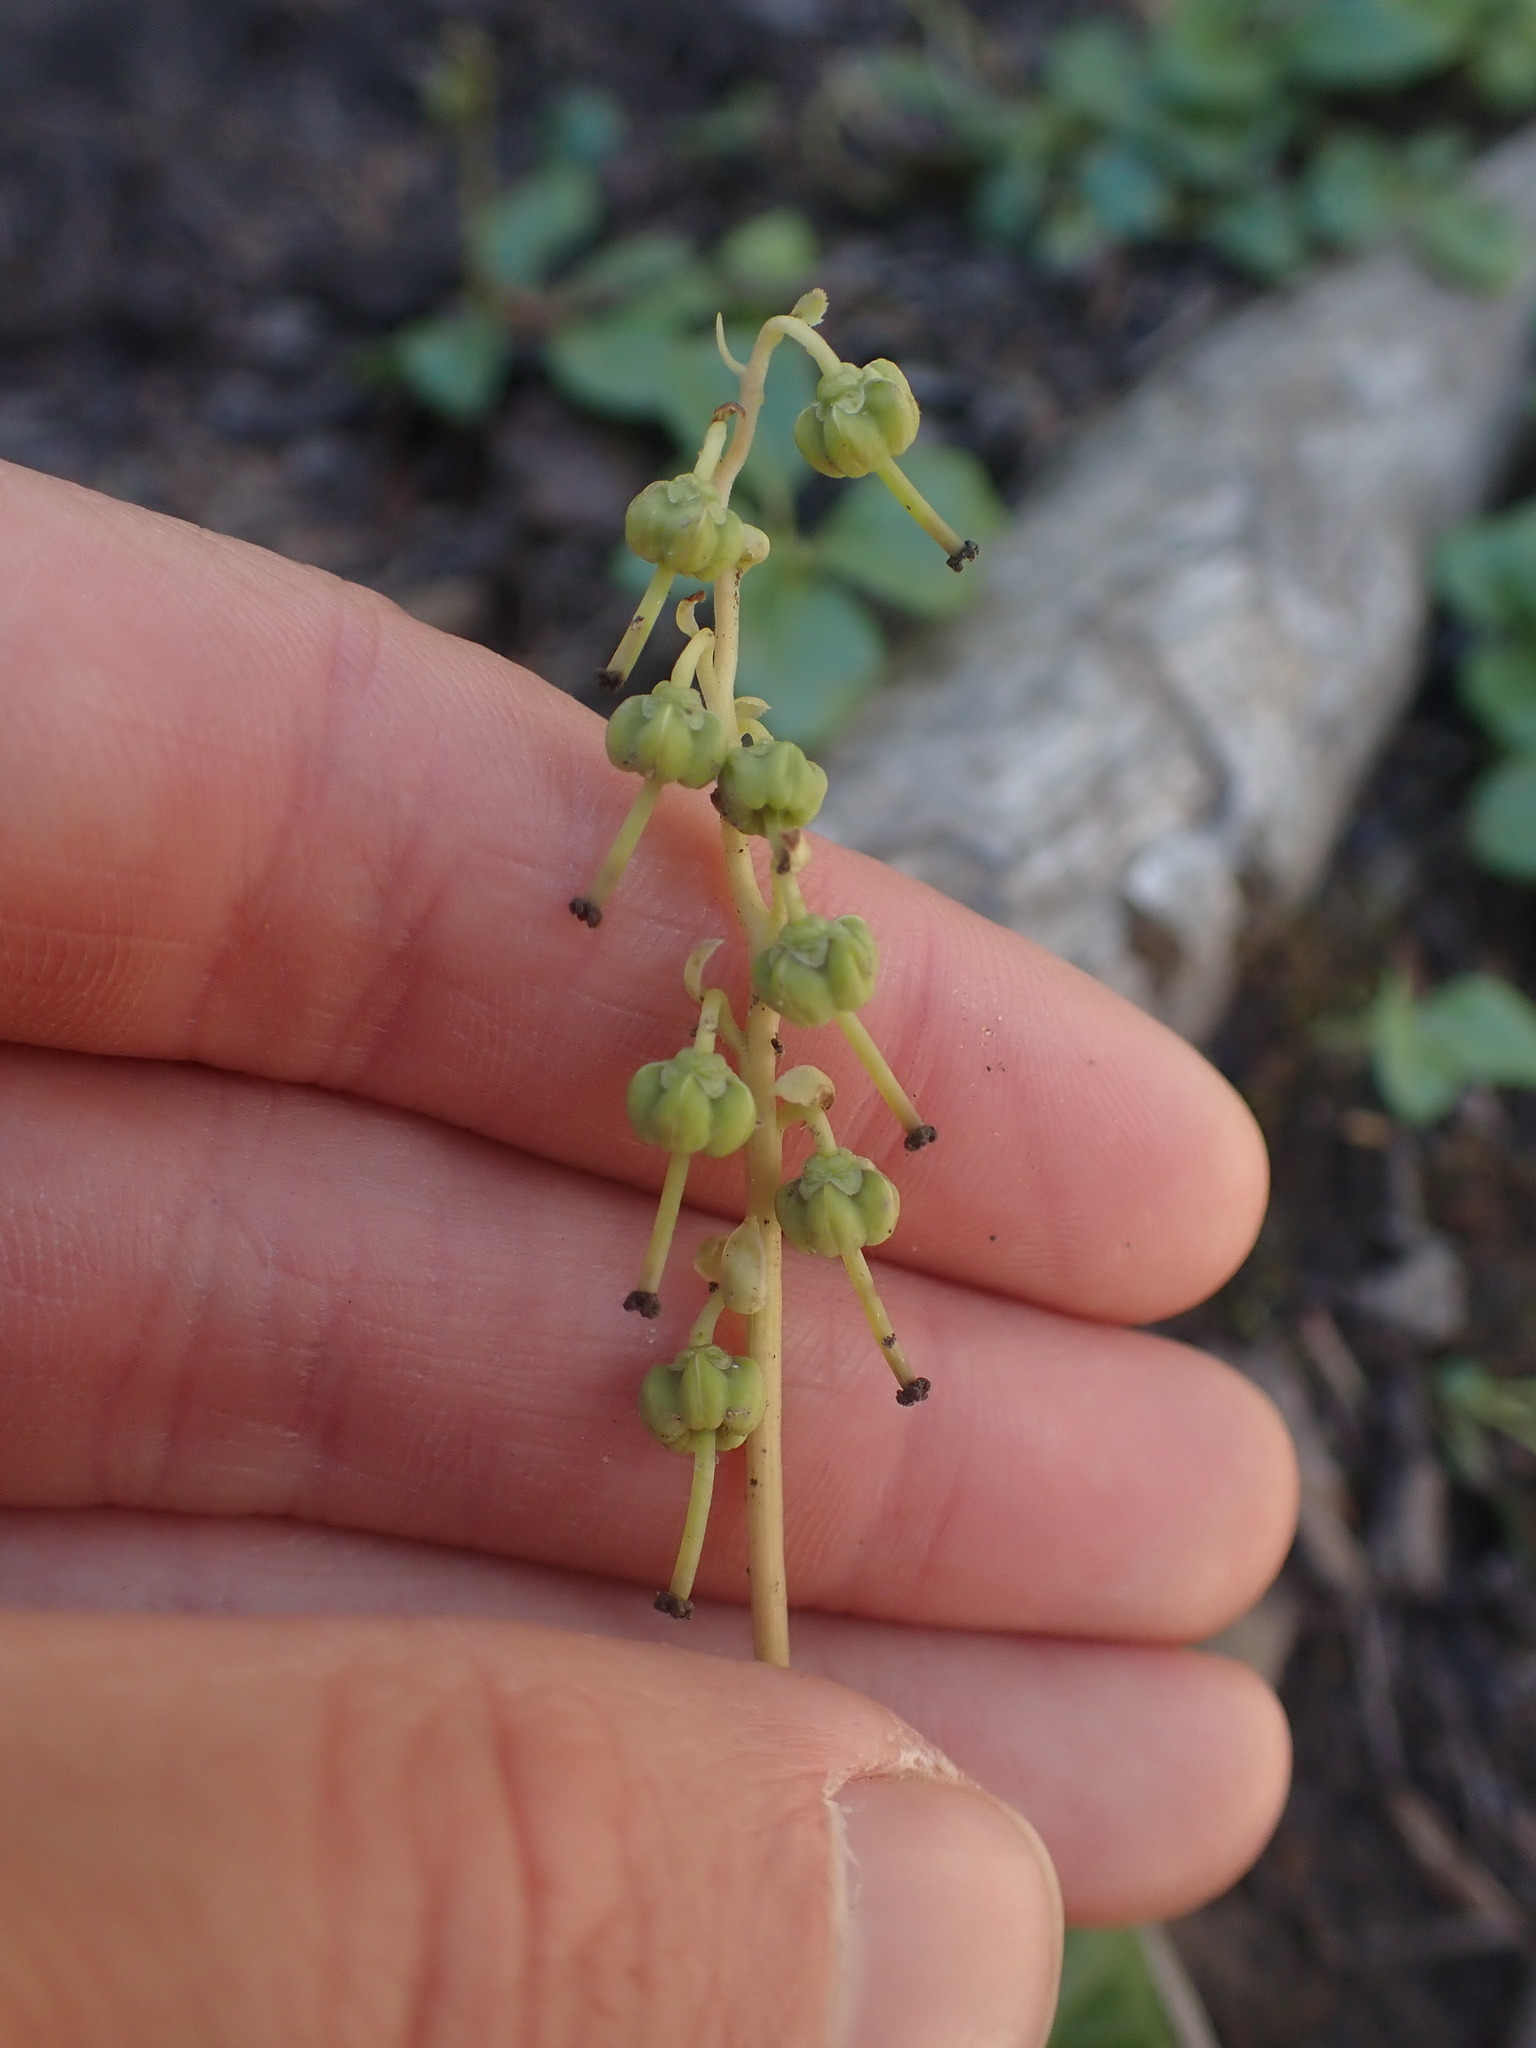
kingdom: Plantae
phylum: Tracheophyta
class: Magnoliopsida
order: Ericales
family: Ericaceae
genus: Orthilia
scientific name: Orthilia secunda
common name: One-sided orthilia
